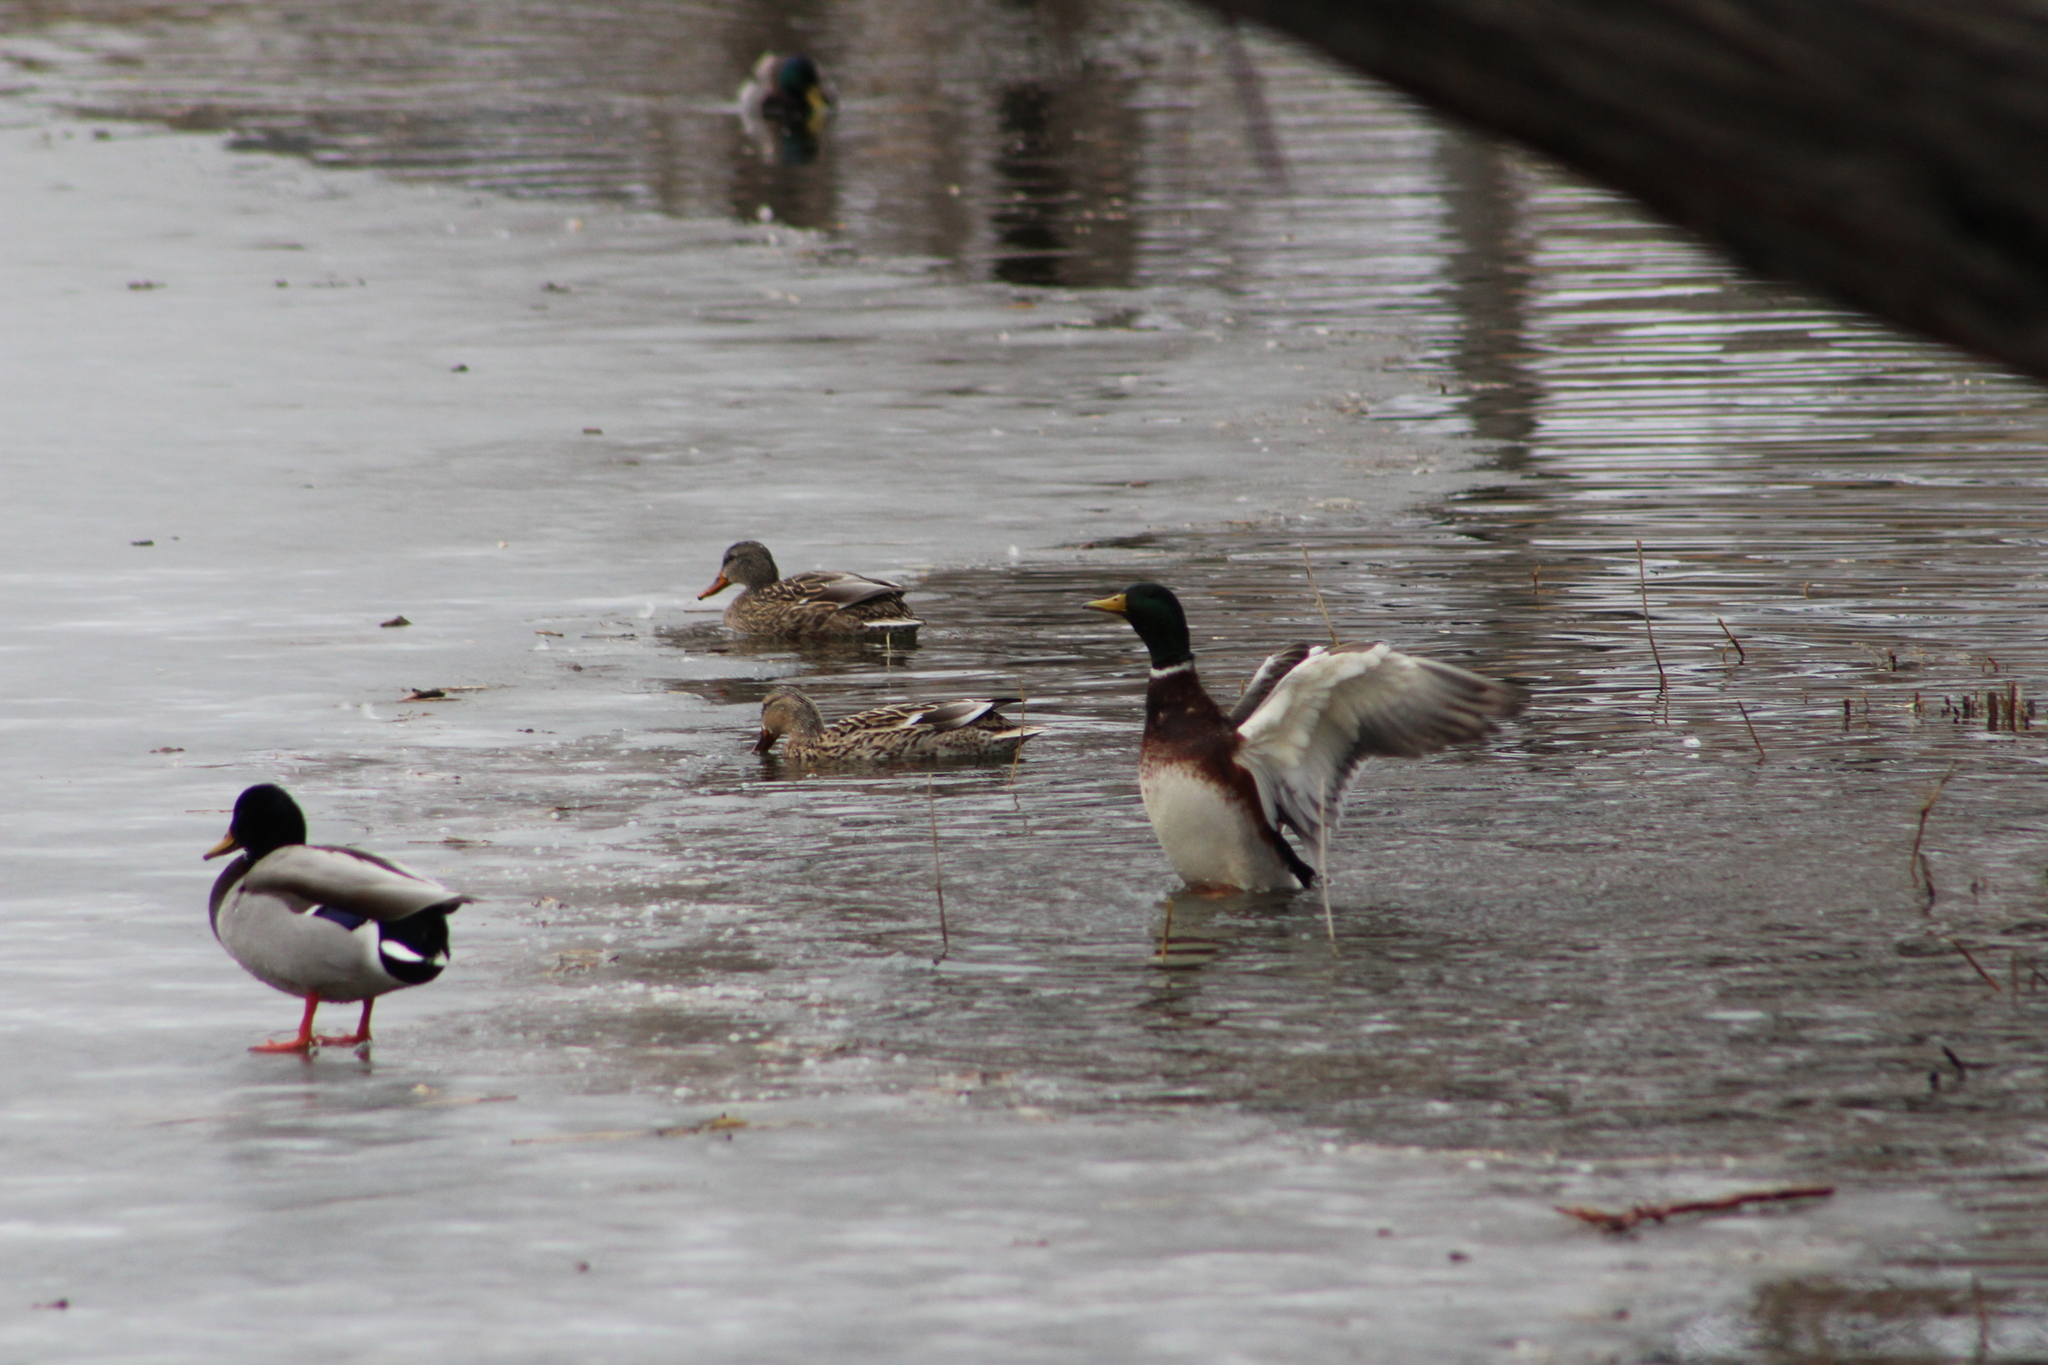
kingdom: Animalia
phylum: Chordata
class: Aves
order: Anseriformes
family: Anatidae
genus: Anas
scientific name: Anas platyrhynchos
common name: Mallard
